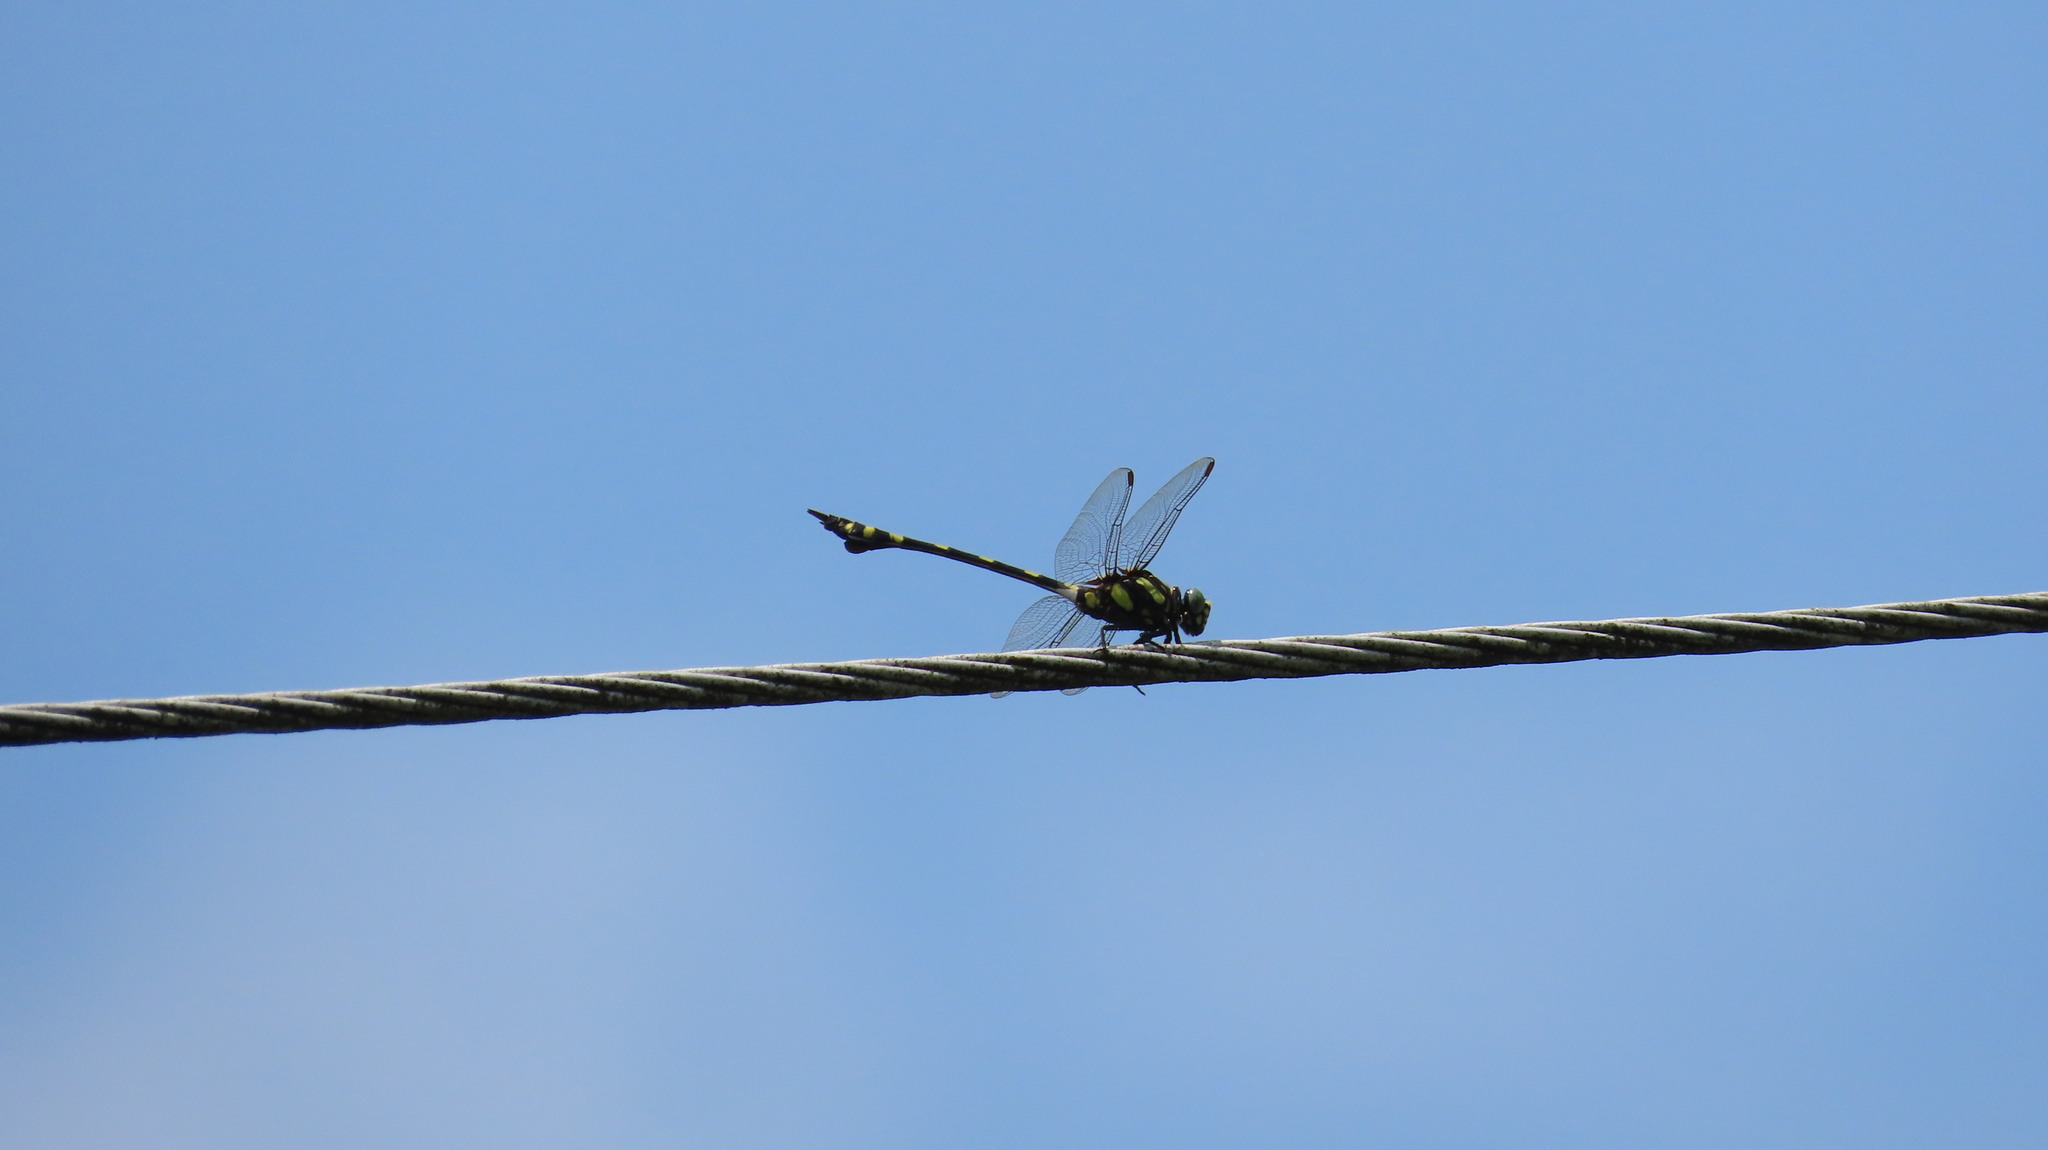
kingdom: Animalia
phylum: Arthropoda
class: Insecta
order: Odonata
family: Gomphidae
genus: Ictinogomphus
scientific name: Ictinogomphus rapax
